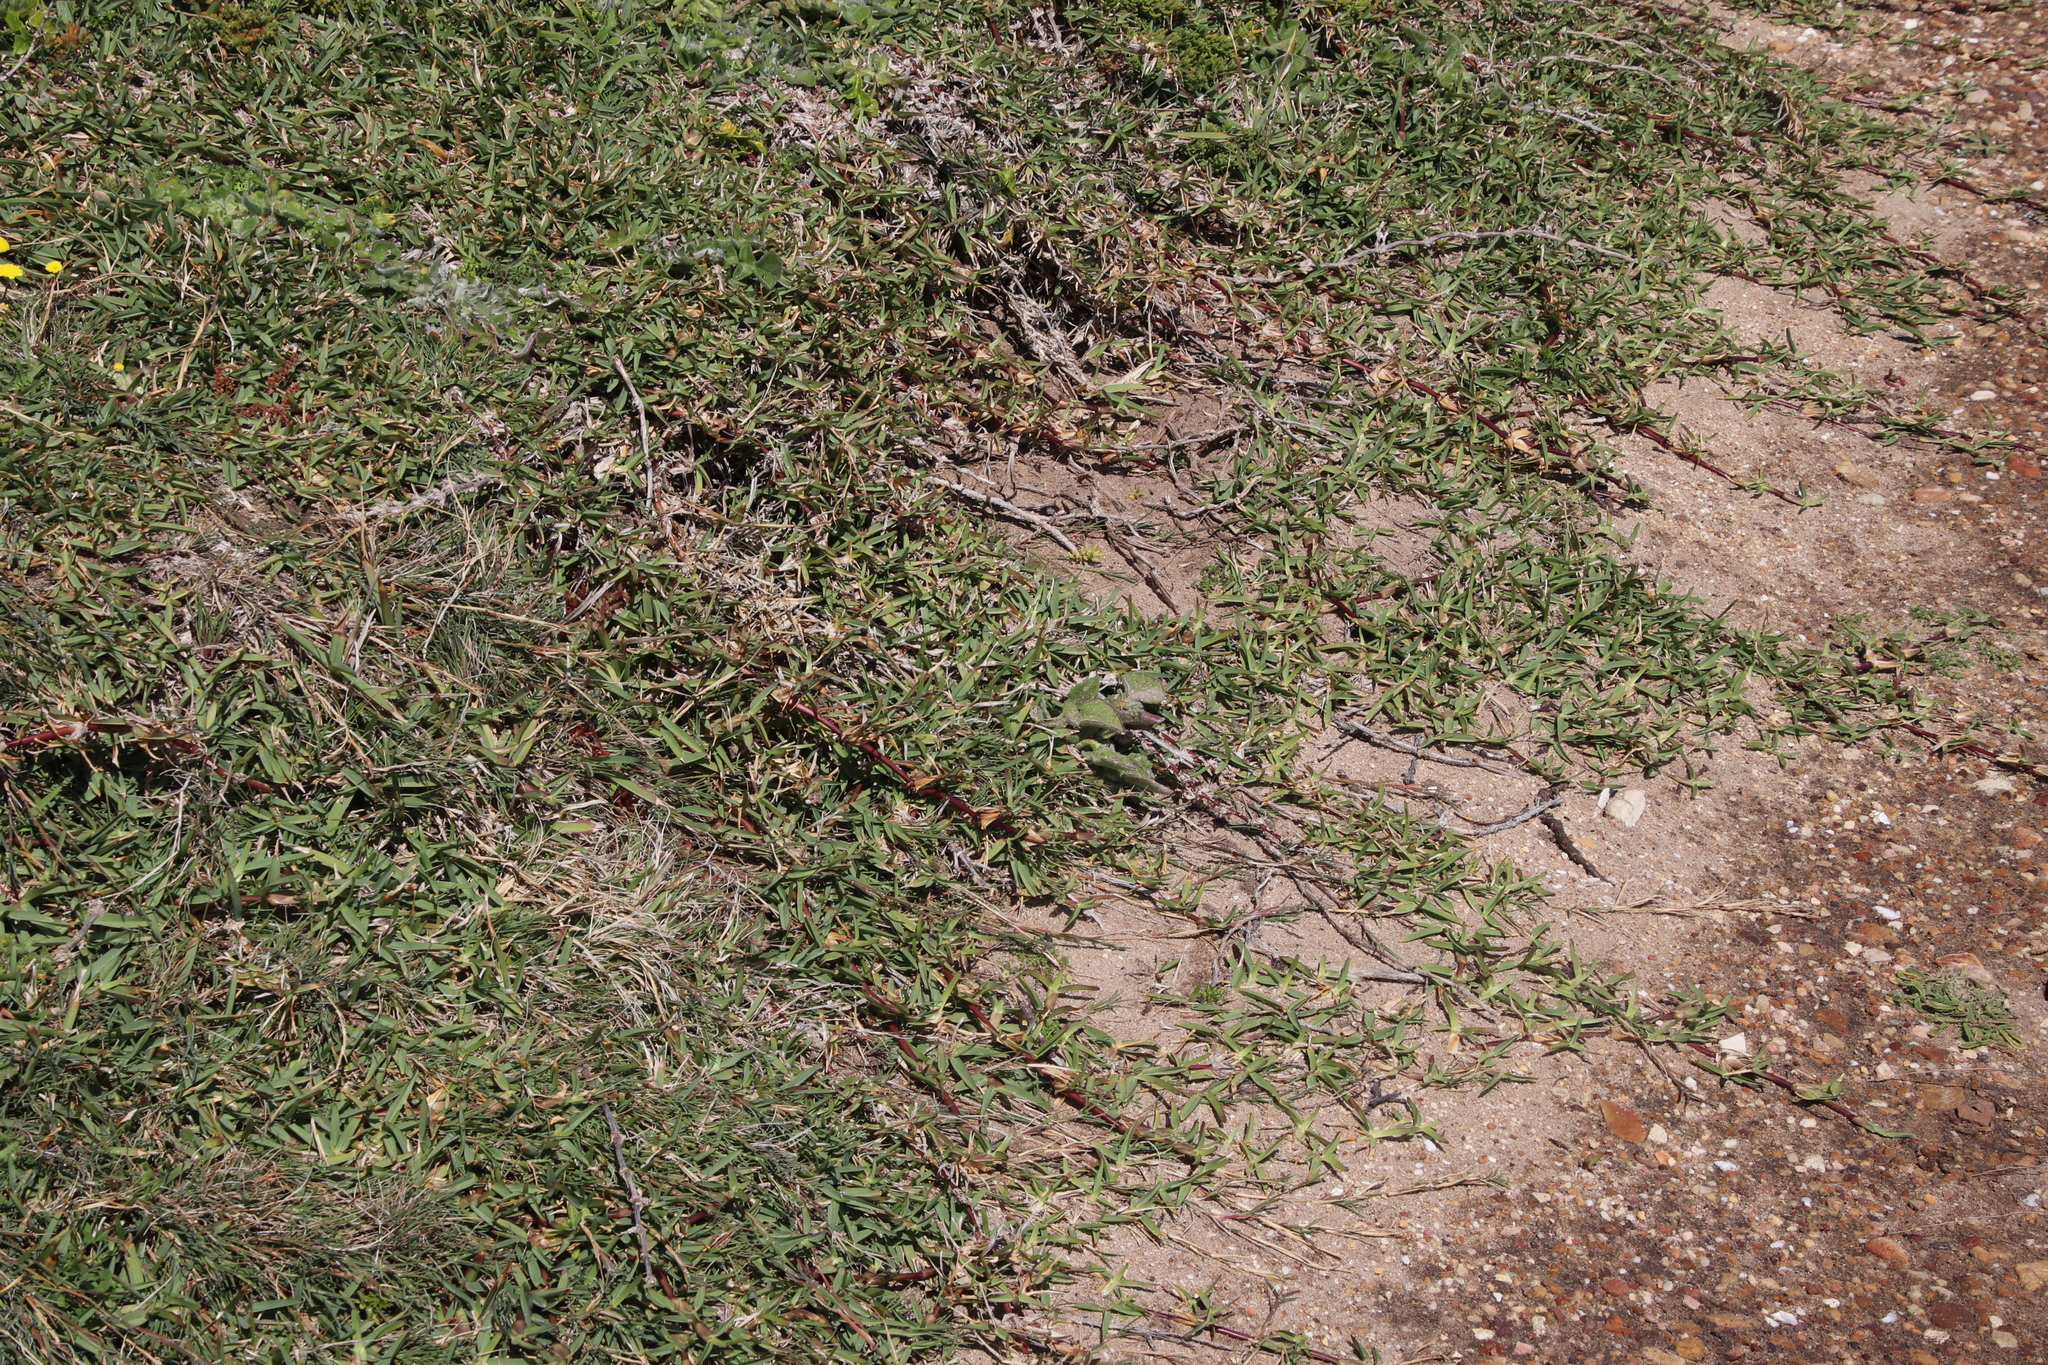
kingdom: Plantae
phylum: Tracheophyta
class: Liliopsida
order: Poales
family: Poaceae
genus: Stenotaphrum
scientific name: Stenotaphrum secundatum
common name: St. augustine grass
